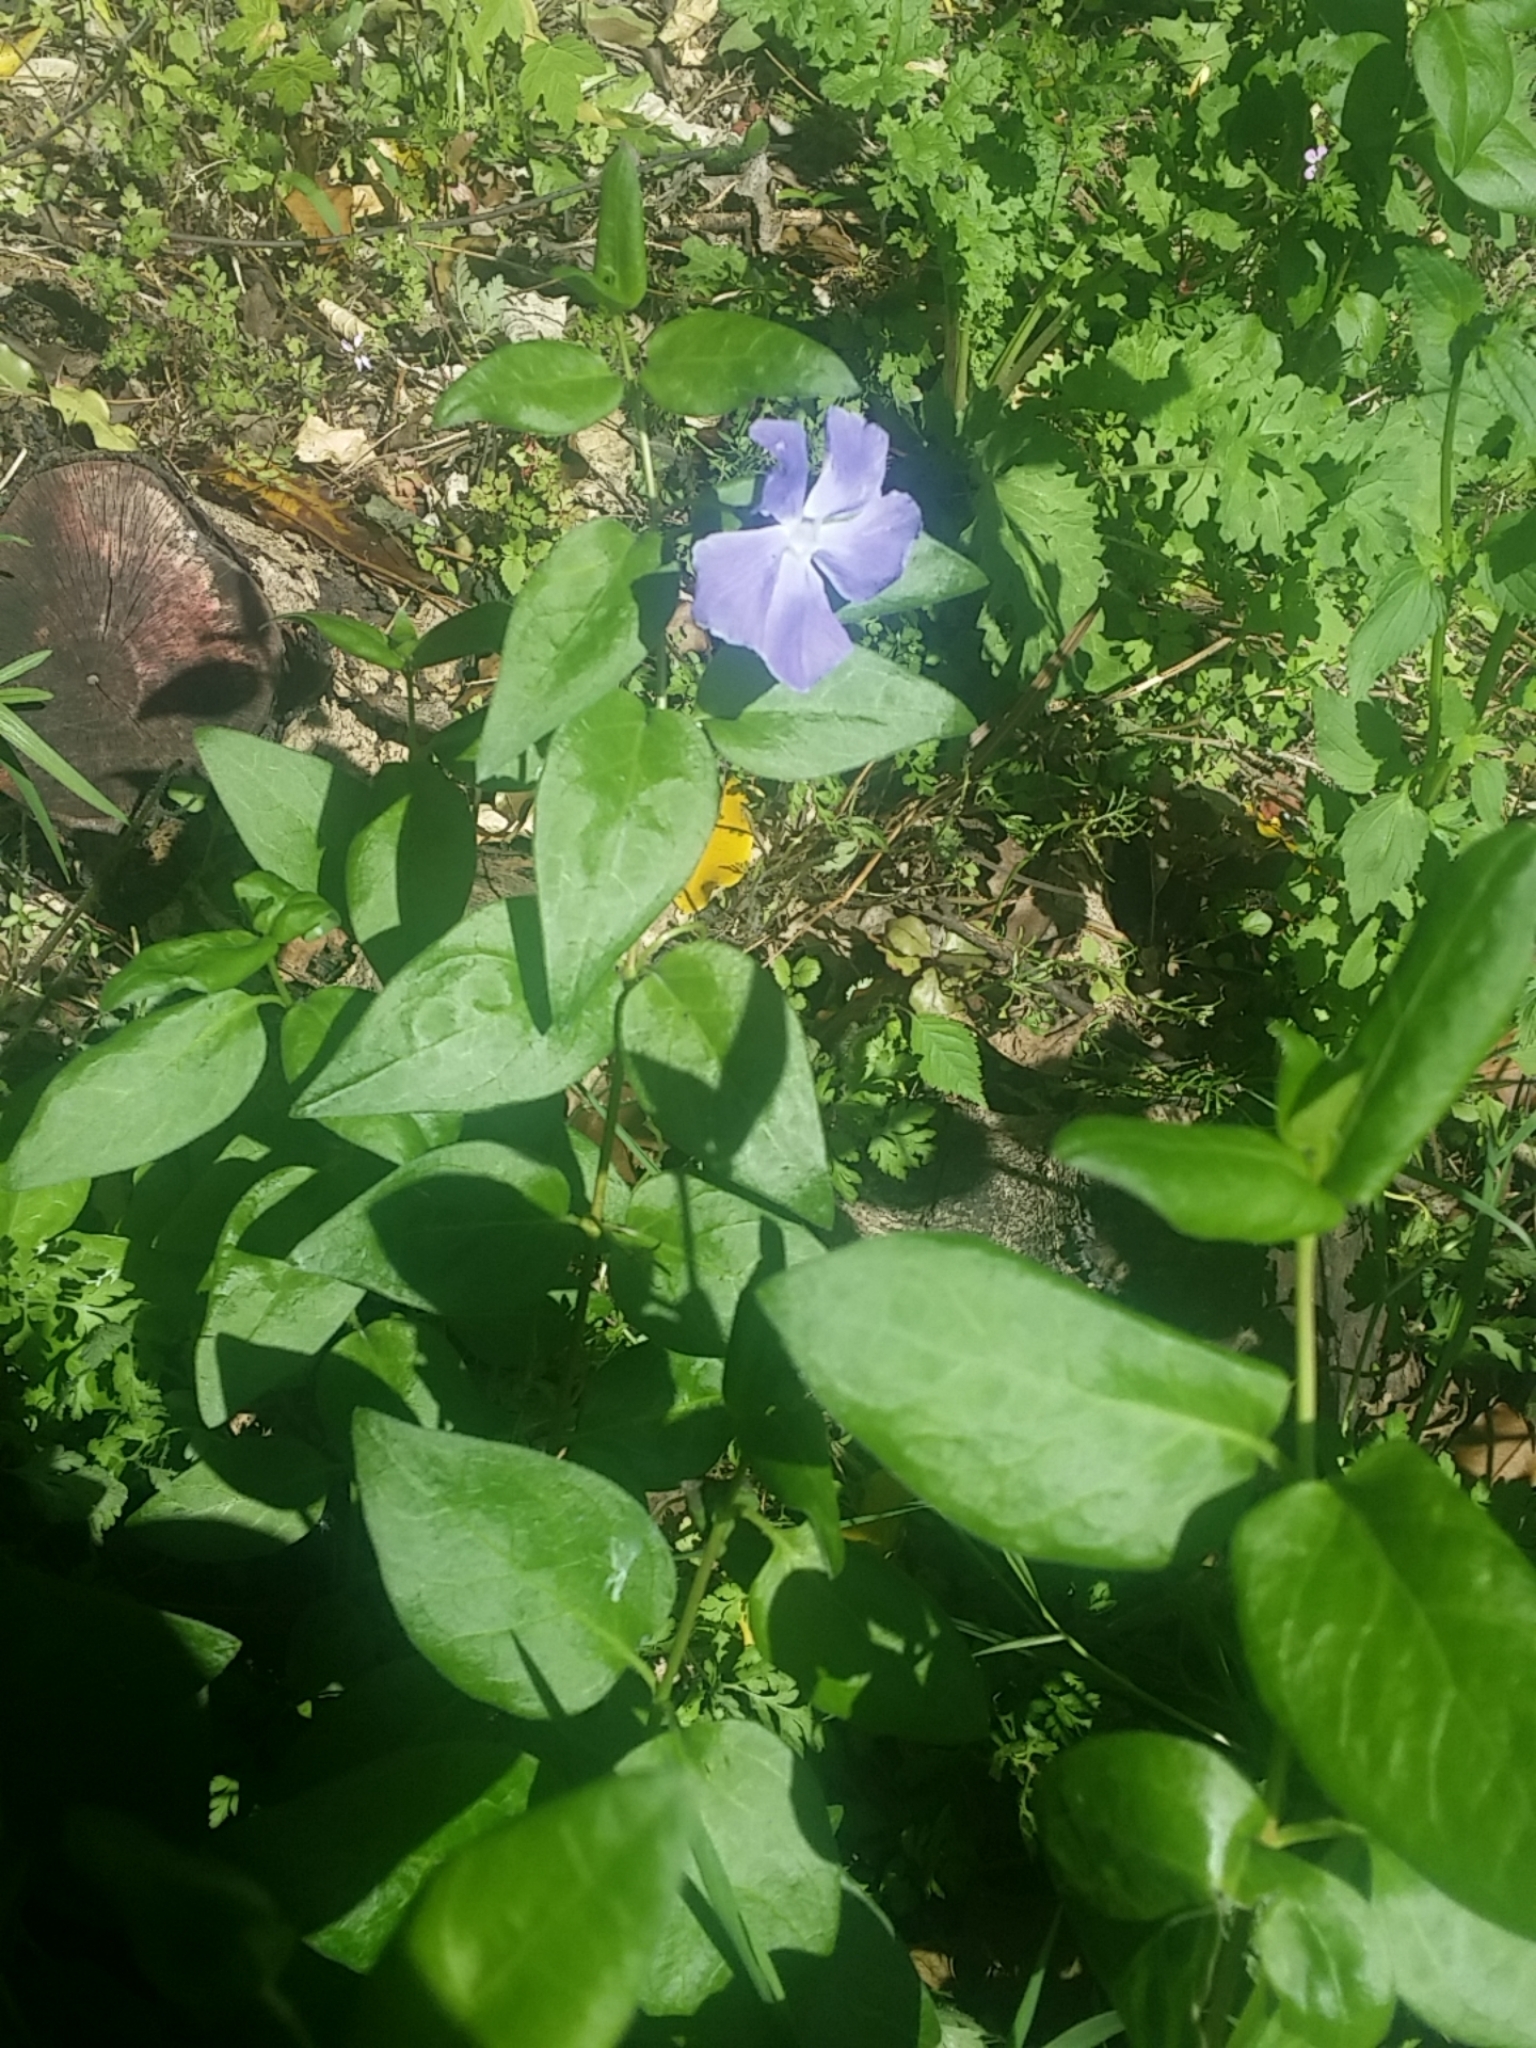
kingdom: Plantae
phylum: Tracheophyta
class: Magnoliopsida
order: Gentianales
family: Apocynaceae
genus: Vinca
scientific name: Vinca major
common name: Greater periwinkle
